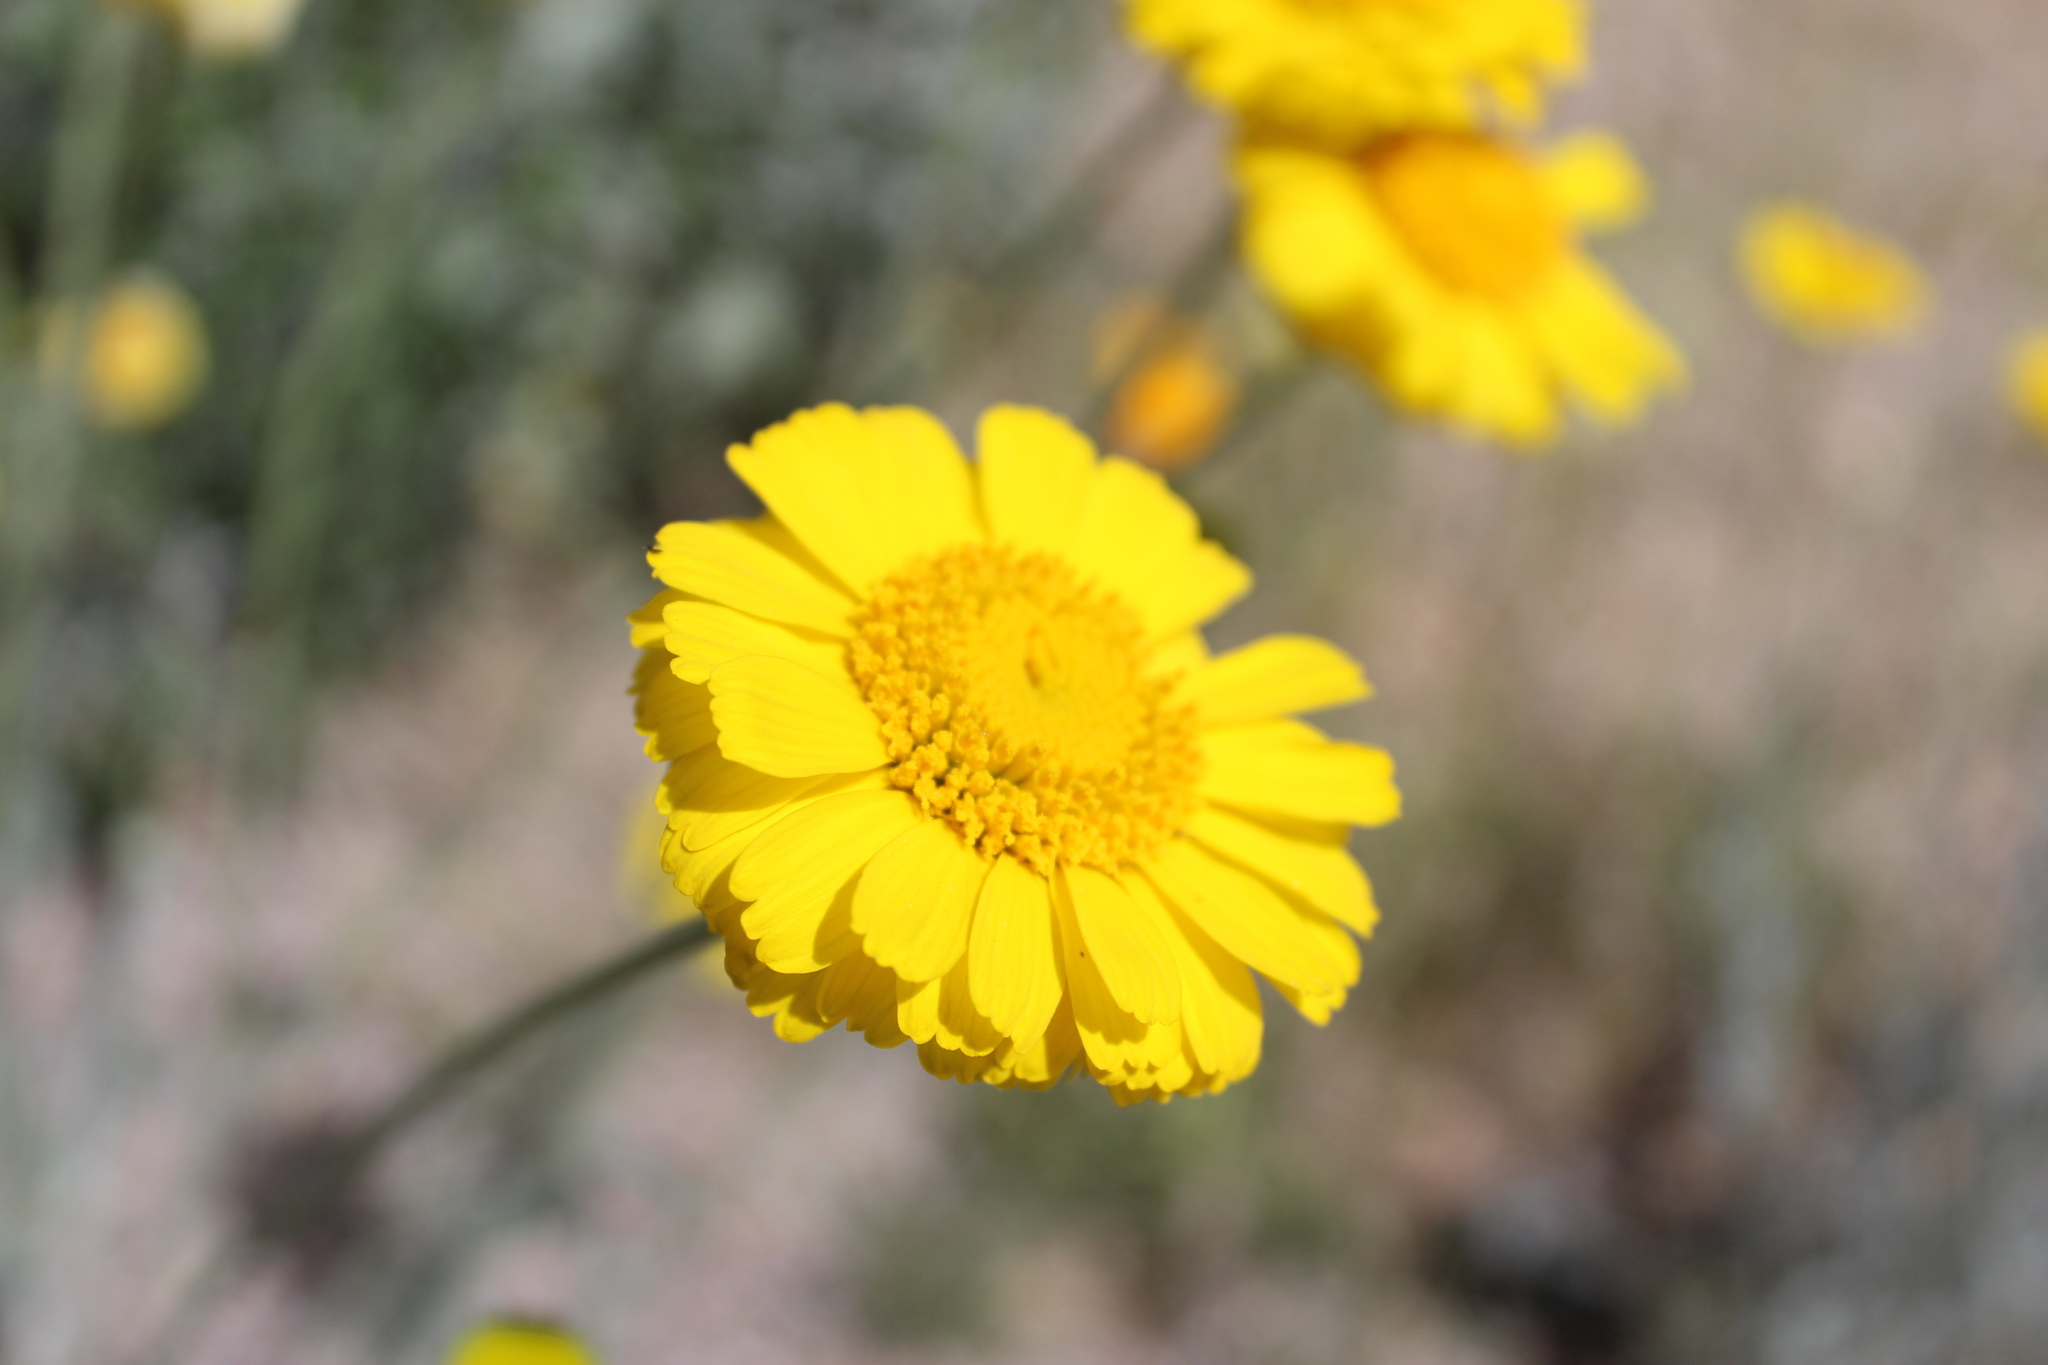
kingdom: Plantae
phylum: Tracheophyta
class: Magnoliopsida
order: Asterales
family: Asteraceae
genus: Baileya
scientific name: Baileya multiradiata
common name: Desert-marigold
